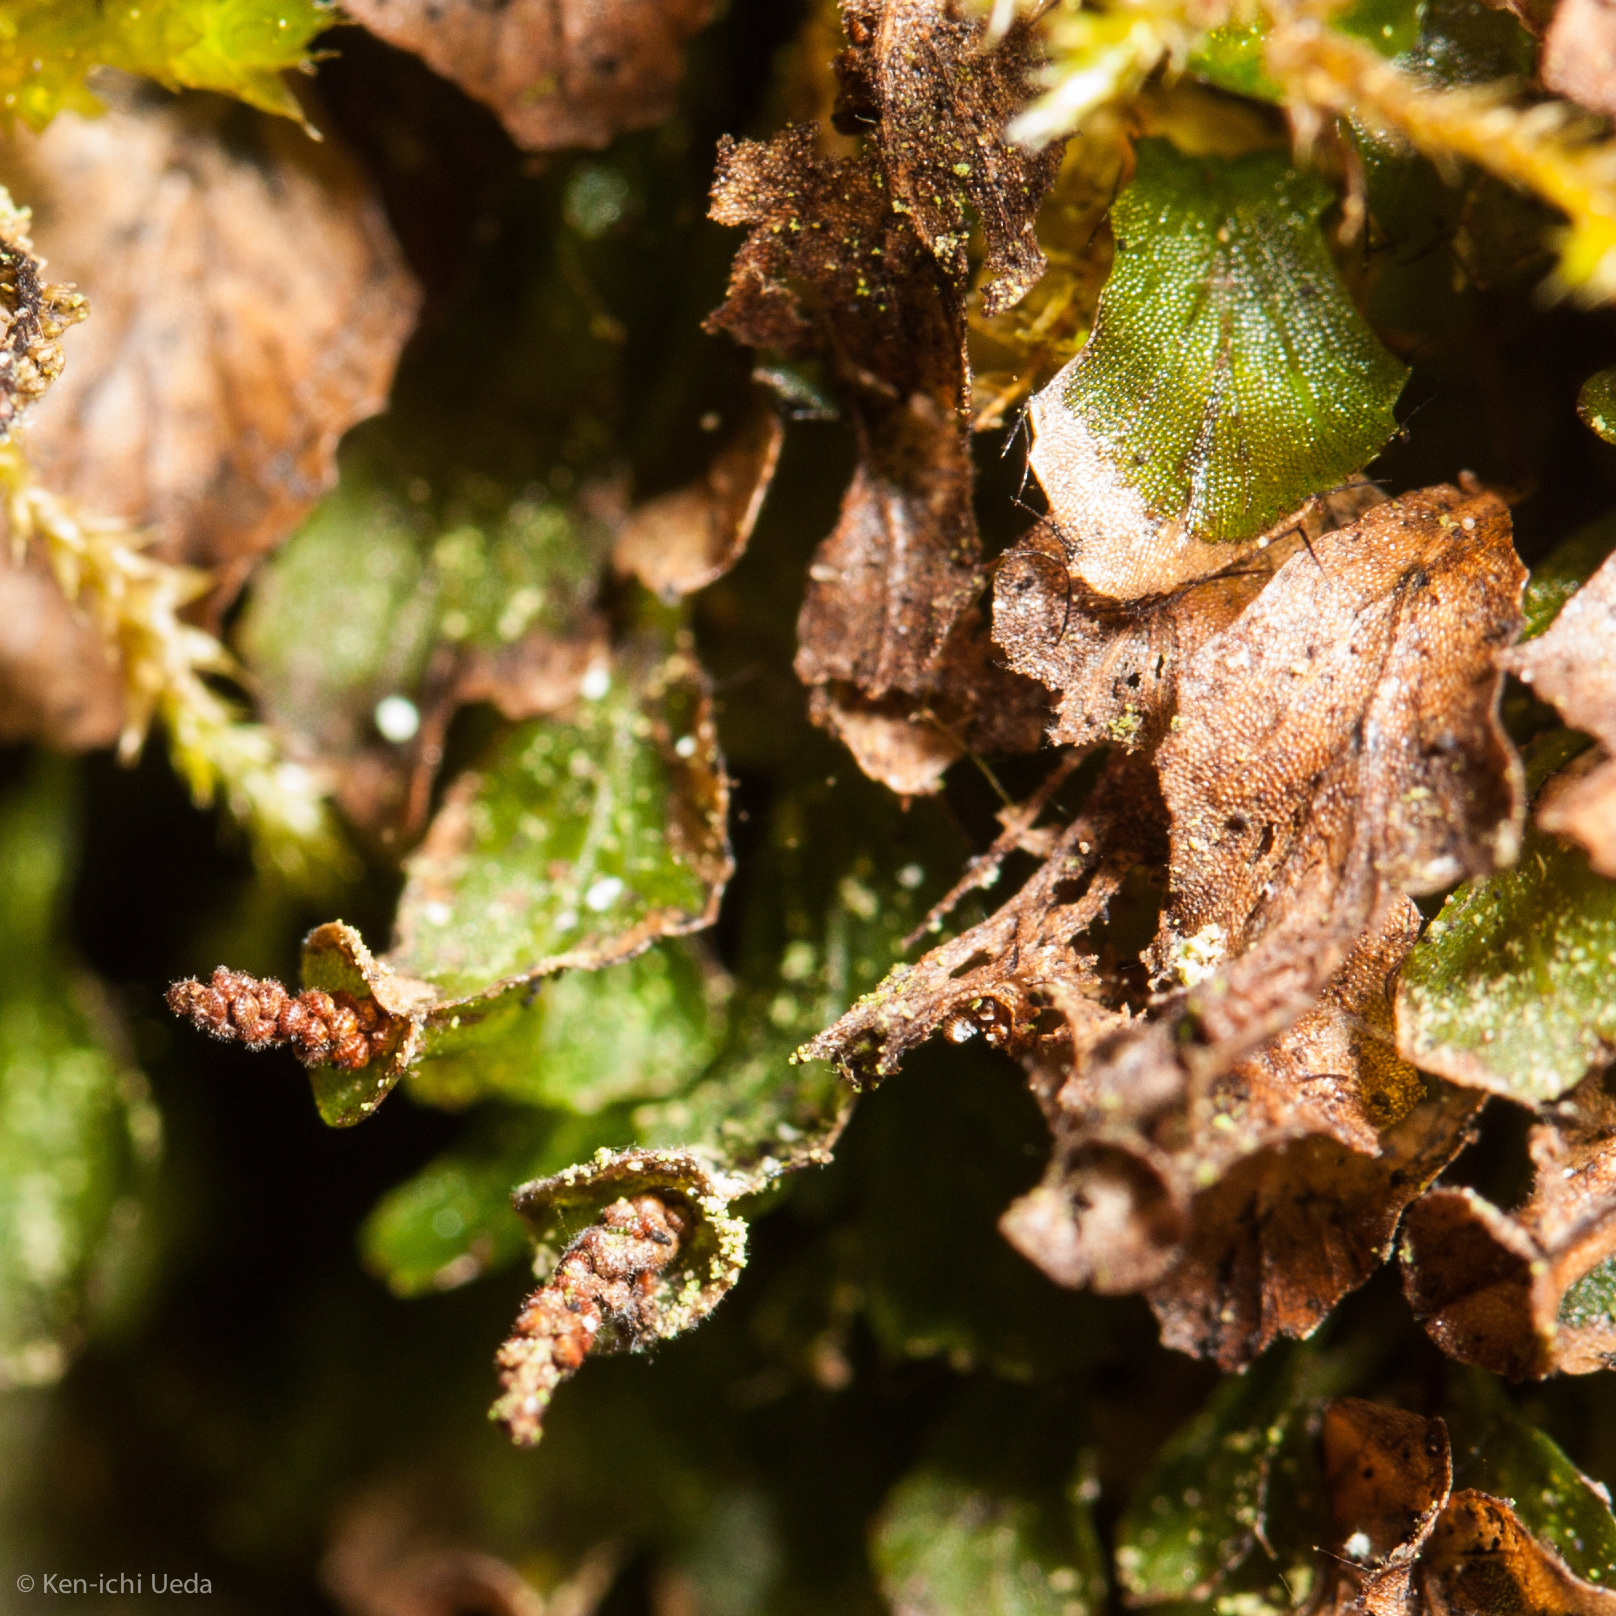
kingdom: Plantae
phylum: Tracheophyta
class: Polypodiopsida
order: Hymenophyllales
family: Hymenophyllaceae
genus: Didymoglossum
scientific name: Didymoglossum petersii
